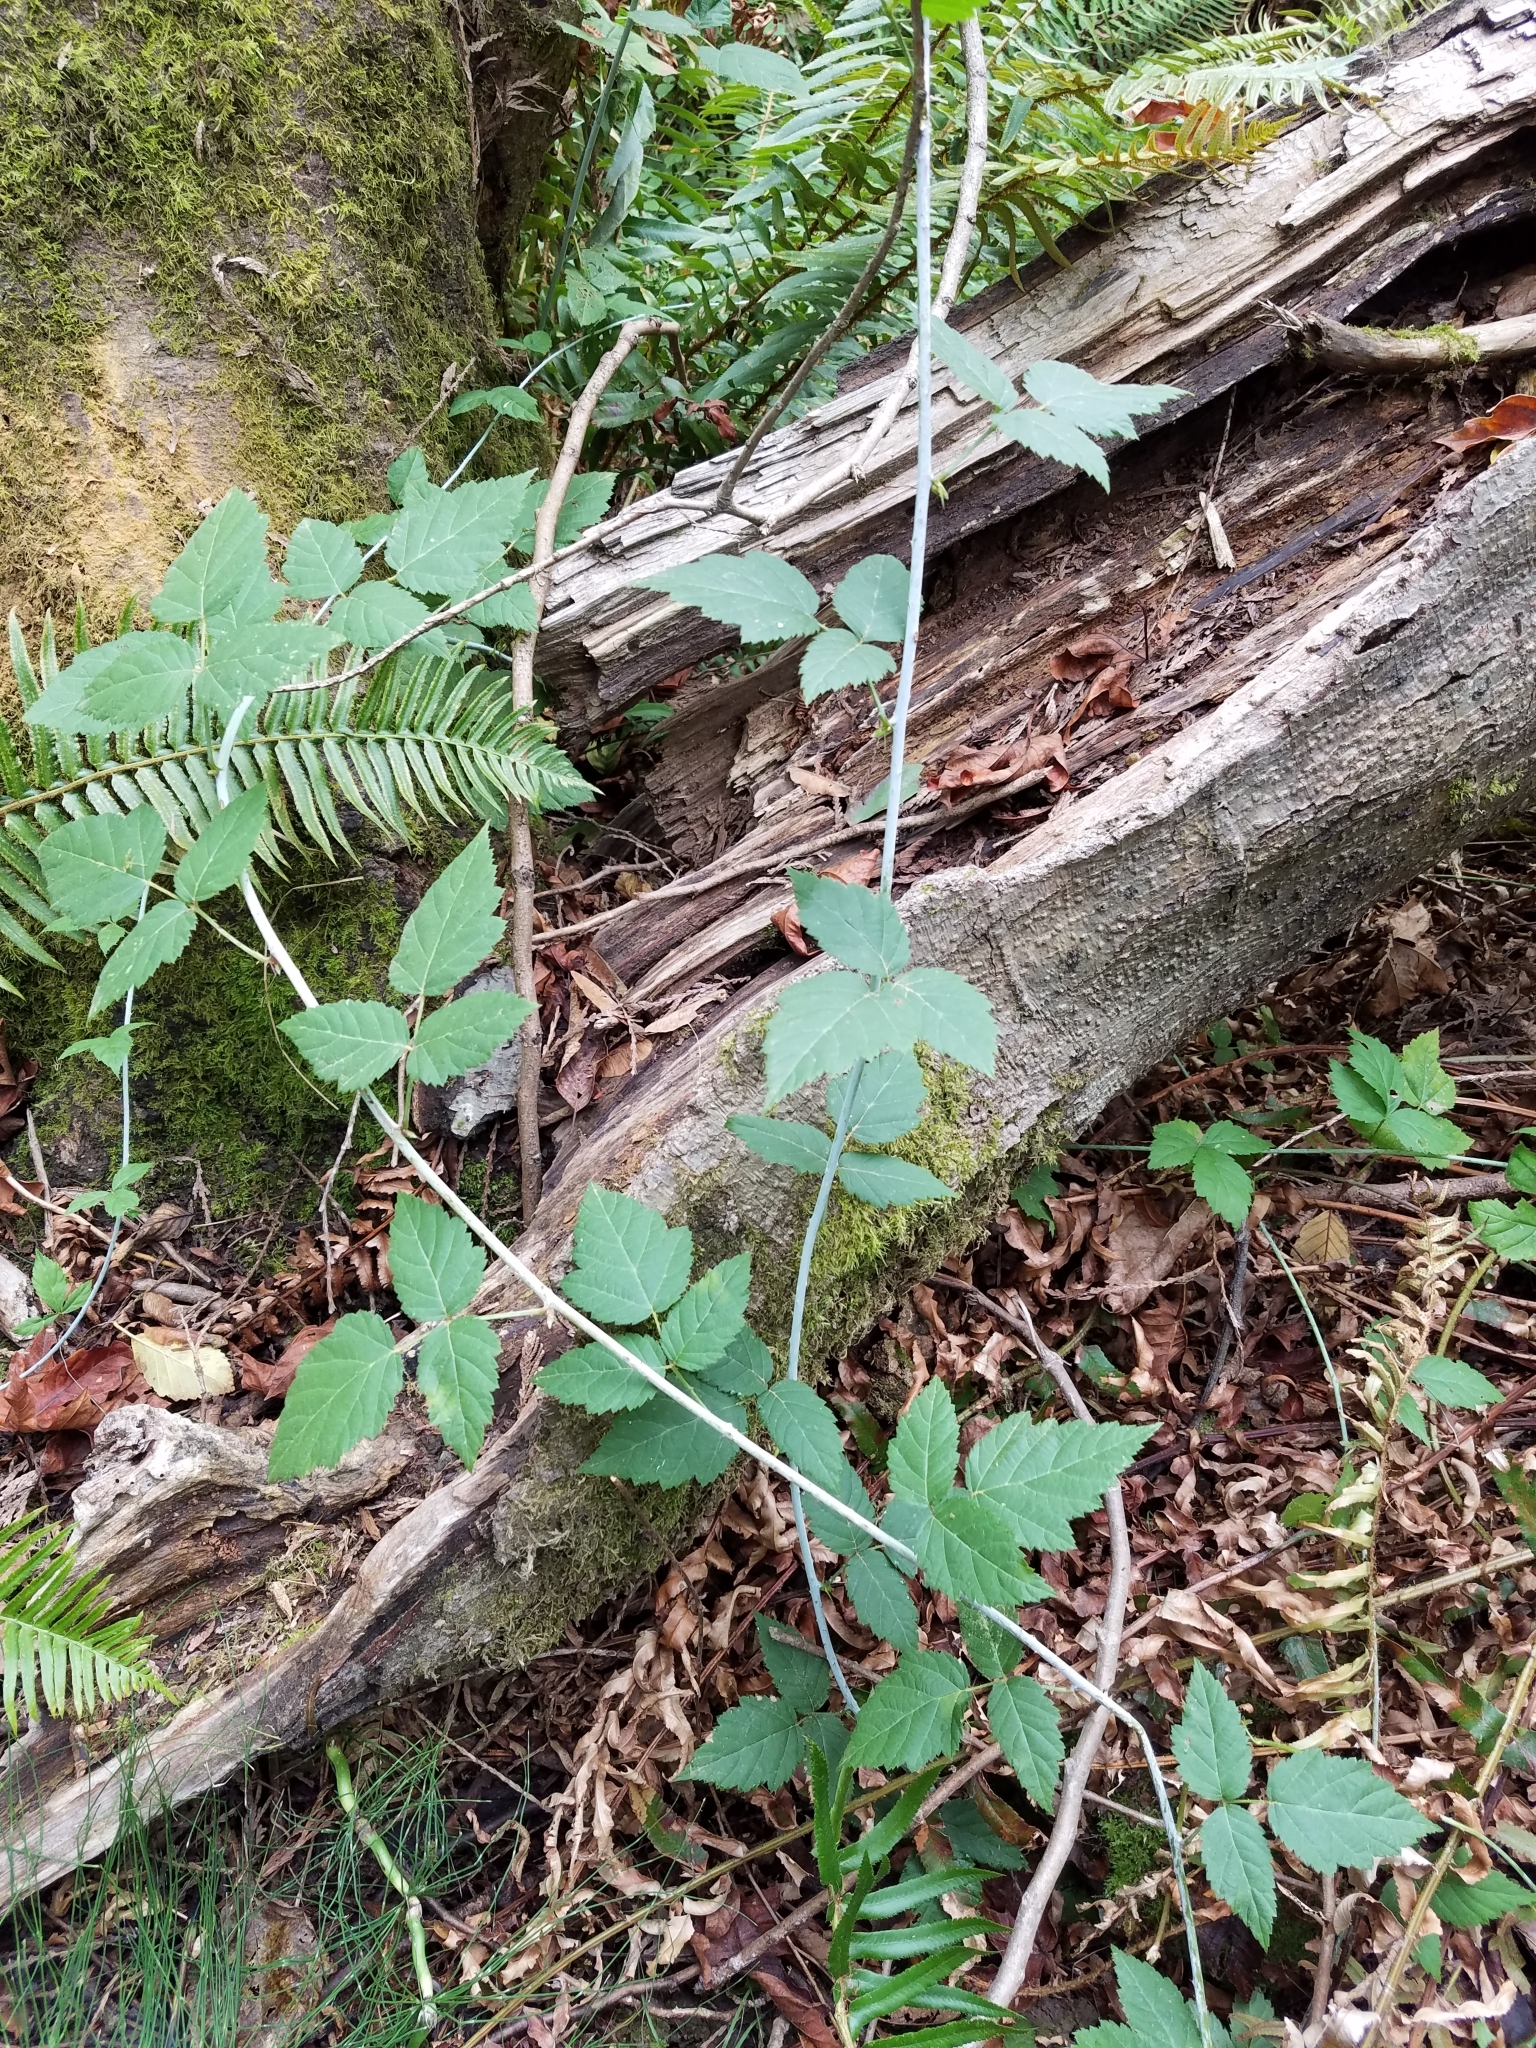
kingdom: Plantae
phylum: Tracheophyta
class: Magnoliopsida
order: Rosales
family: Rosaceae
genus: Rubus
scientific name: Rubus ursinus
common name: Pacific blackberry
